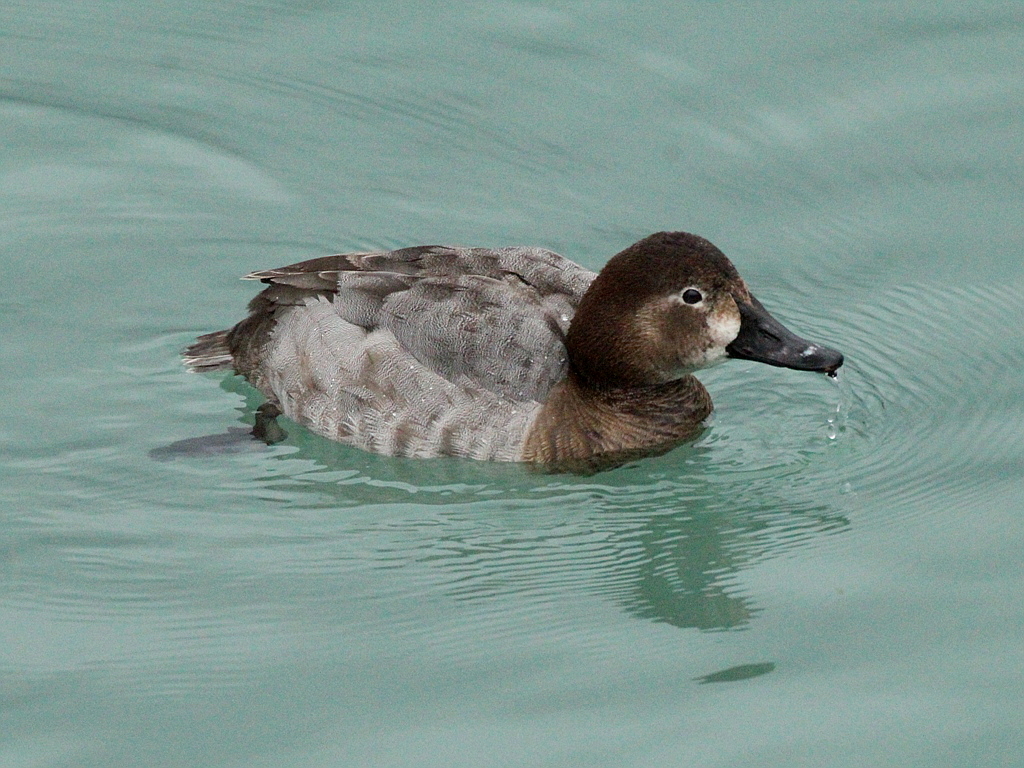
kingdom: Animalia
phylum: Chordata
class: Aves
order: Anseriformes
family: Anatidae
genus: Aythya
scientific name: Aythya ferina
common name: Common pochard
